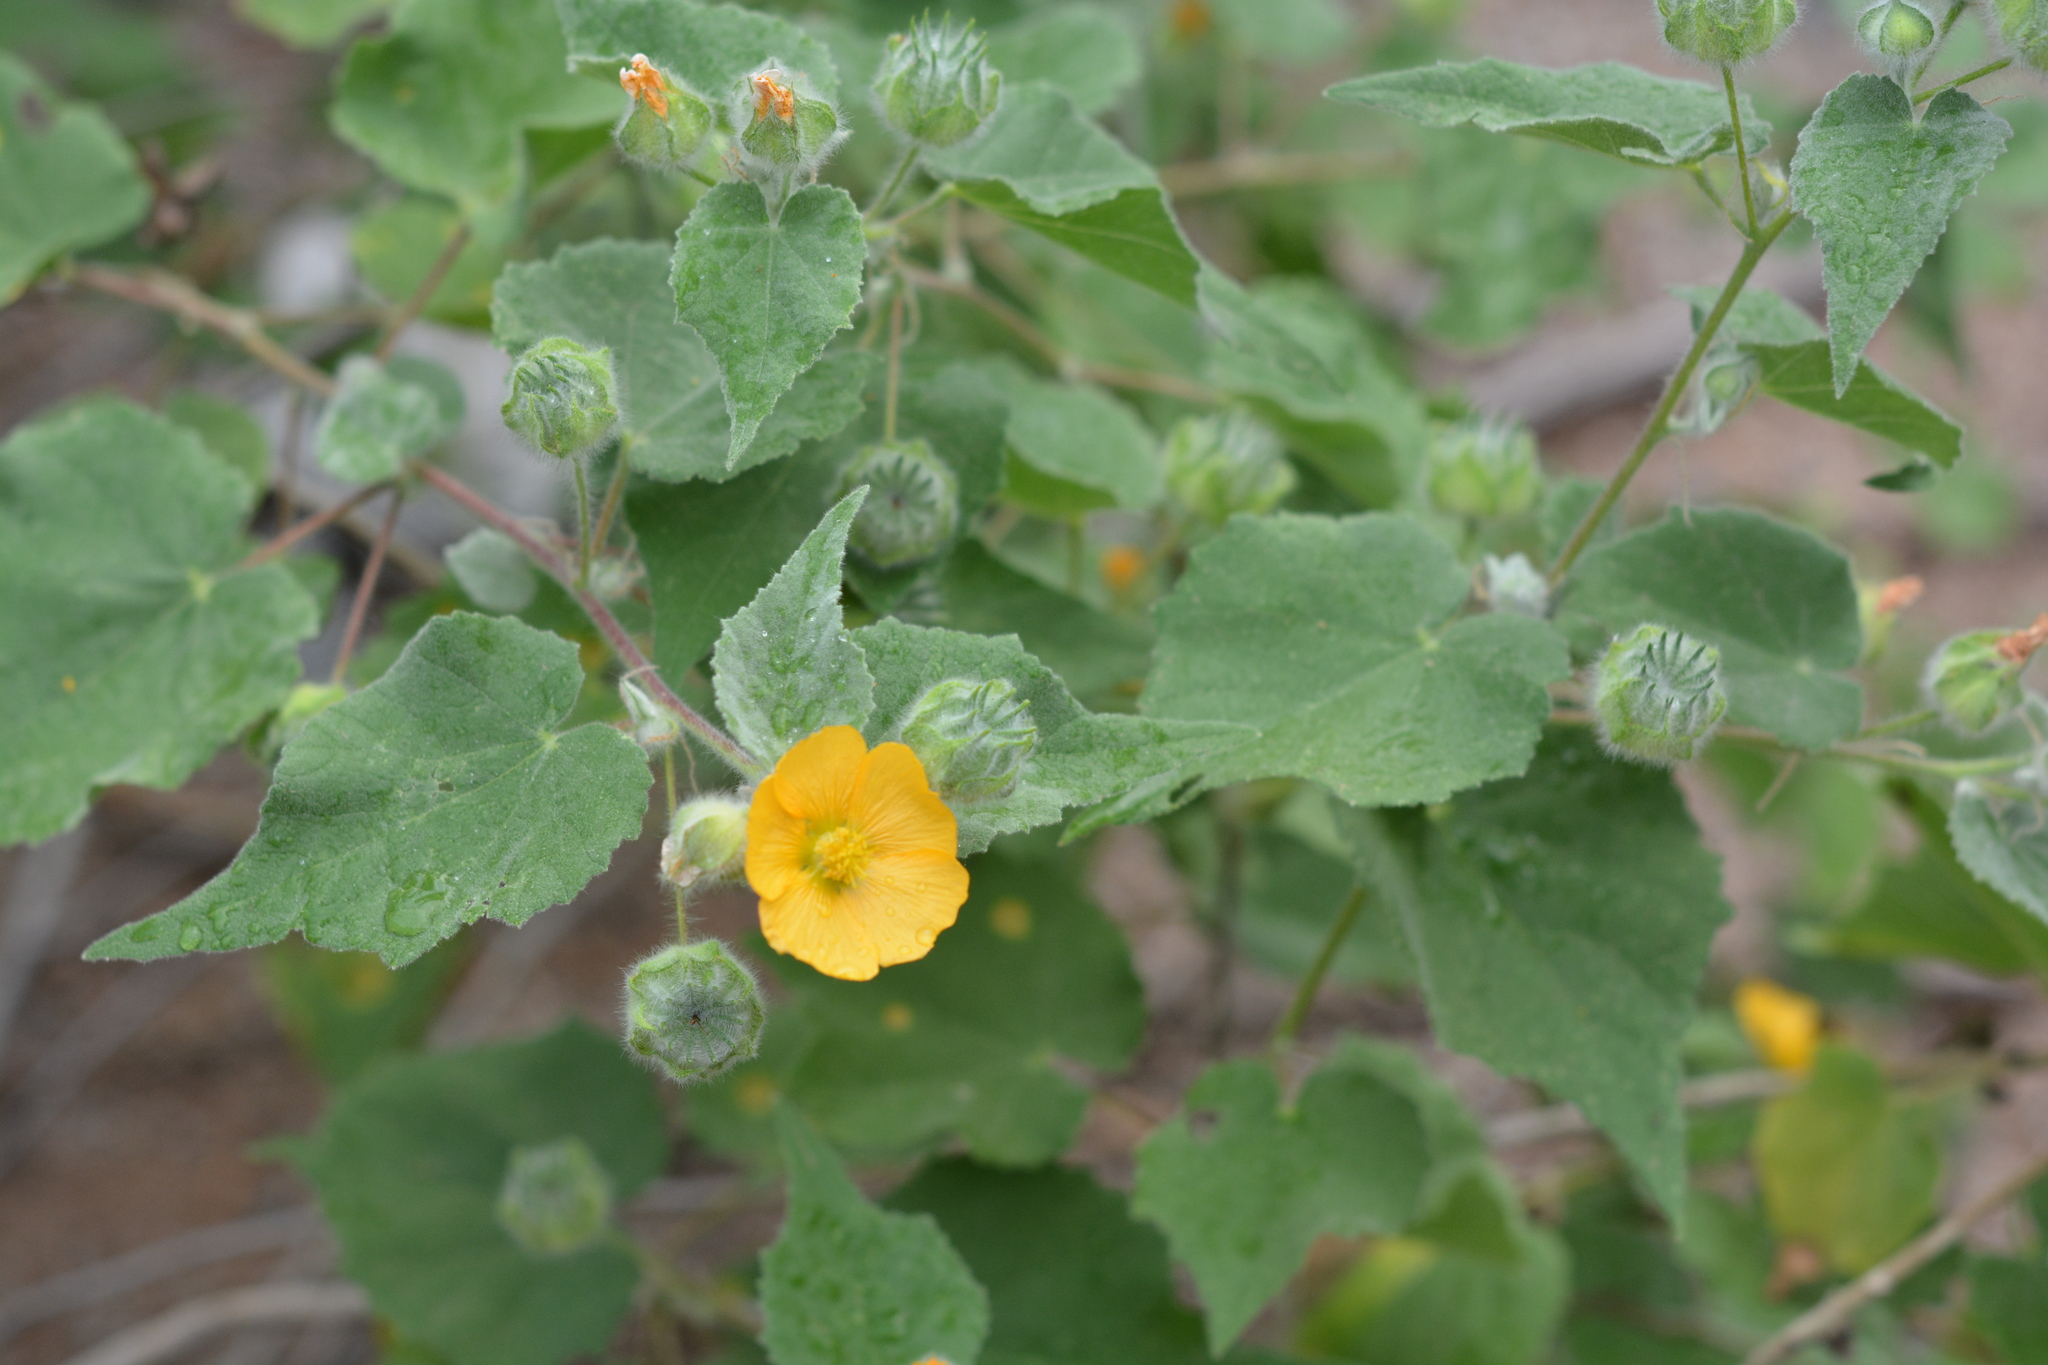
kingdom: Plantae
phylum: Tracheophyta
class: Magnoliopsida
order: Malvales
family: Malvaceae
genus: Abutilon
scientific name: Abutilon palmeri
